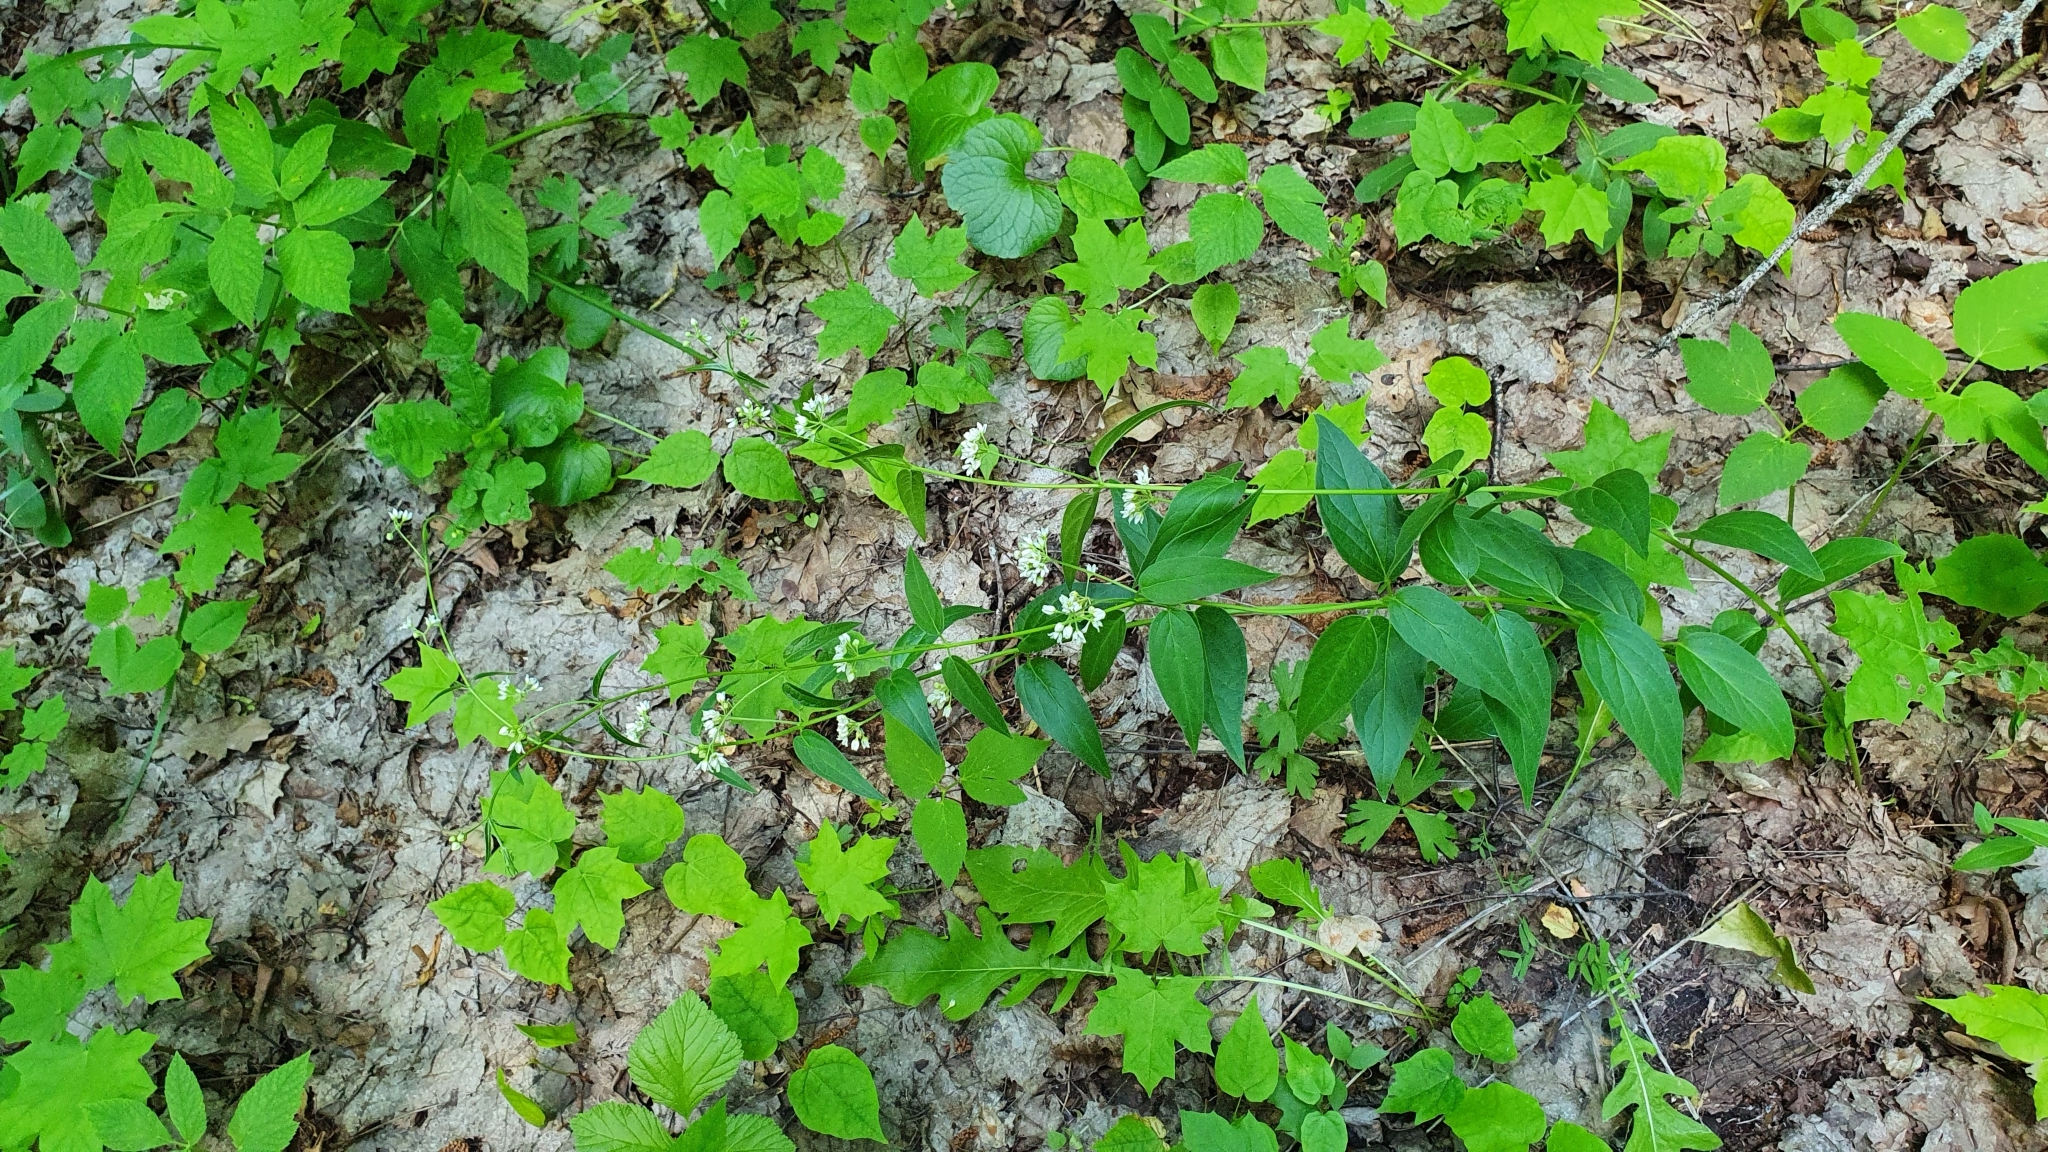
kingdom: Plantae
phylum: Tracheophyta
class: Magnoliopsida
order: Gentianales
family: Apocynaceae
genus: Vincetoxicum
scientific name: Vincetoxicum hirundinaria
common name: White swallowwort
